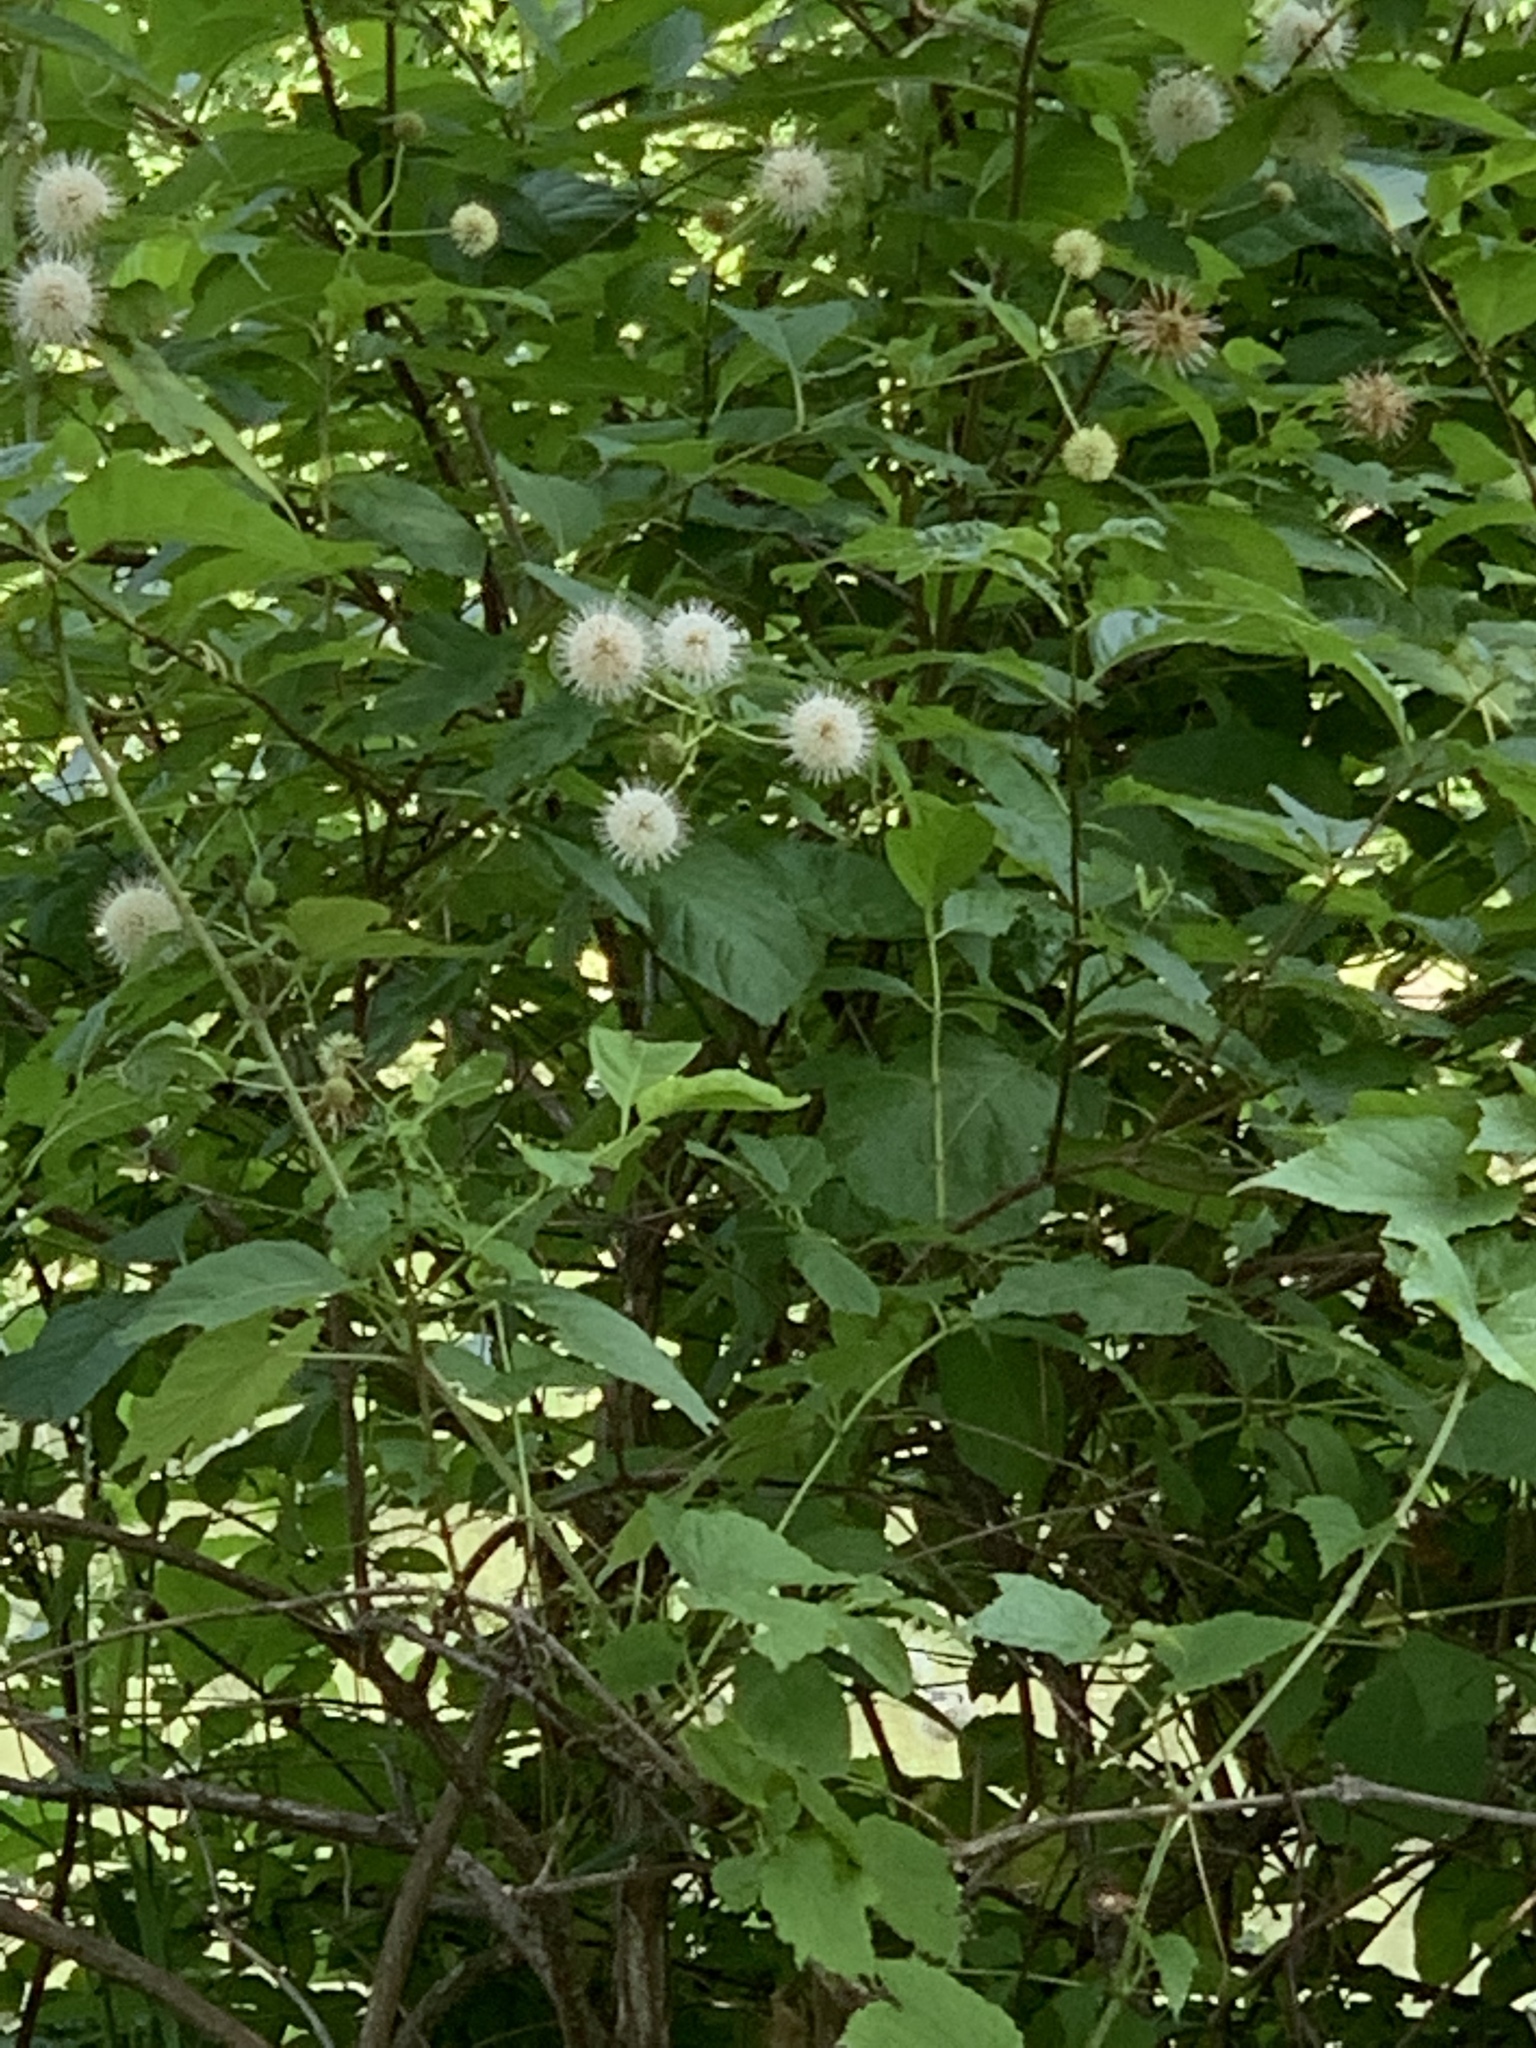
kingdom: Plantae
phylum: Tracheophyta
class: Magnoliopsida
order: Gentianales
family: Rubiaceae
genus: Cephalanthus
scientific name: Cephalanthus occidentalis
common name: Button-willow
